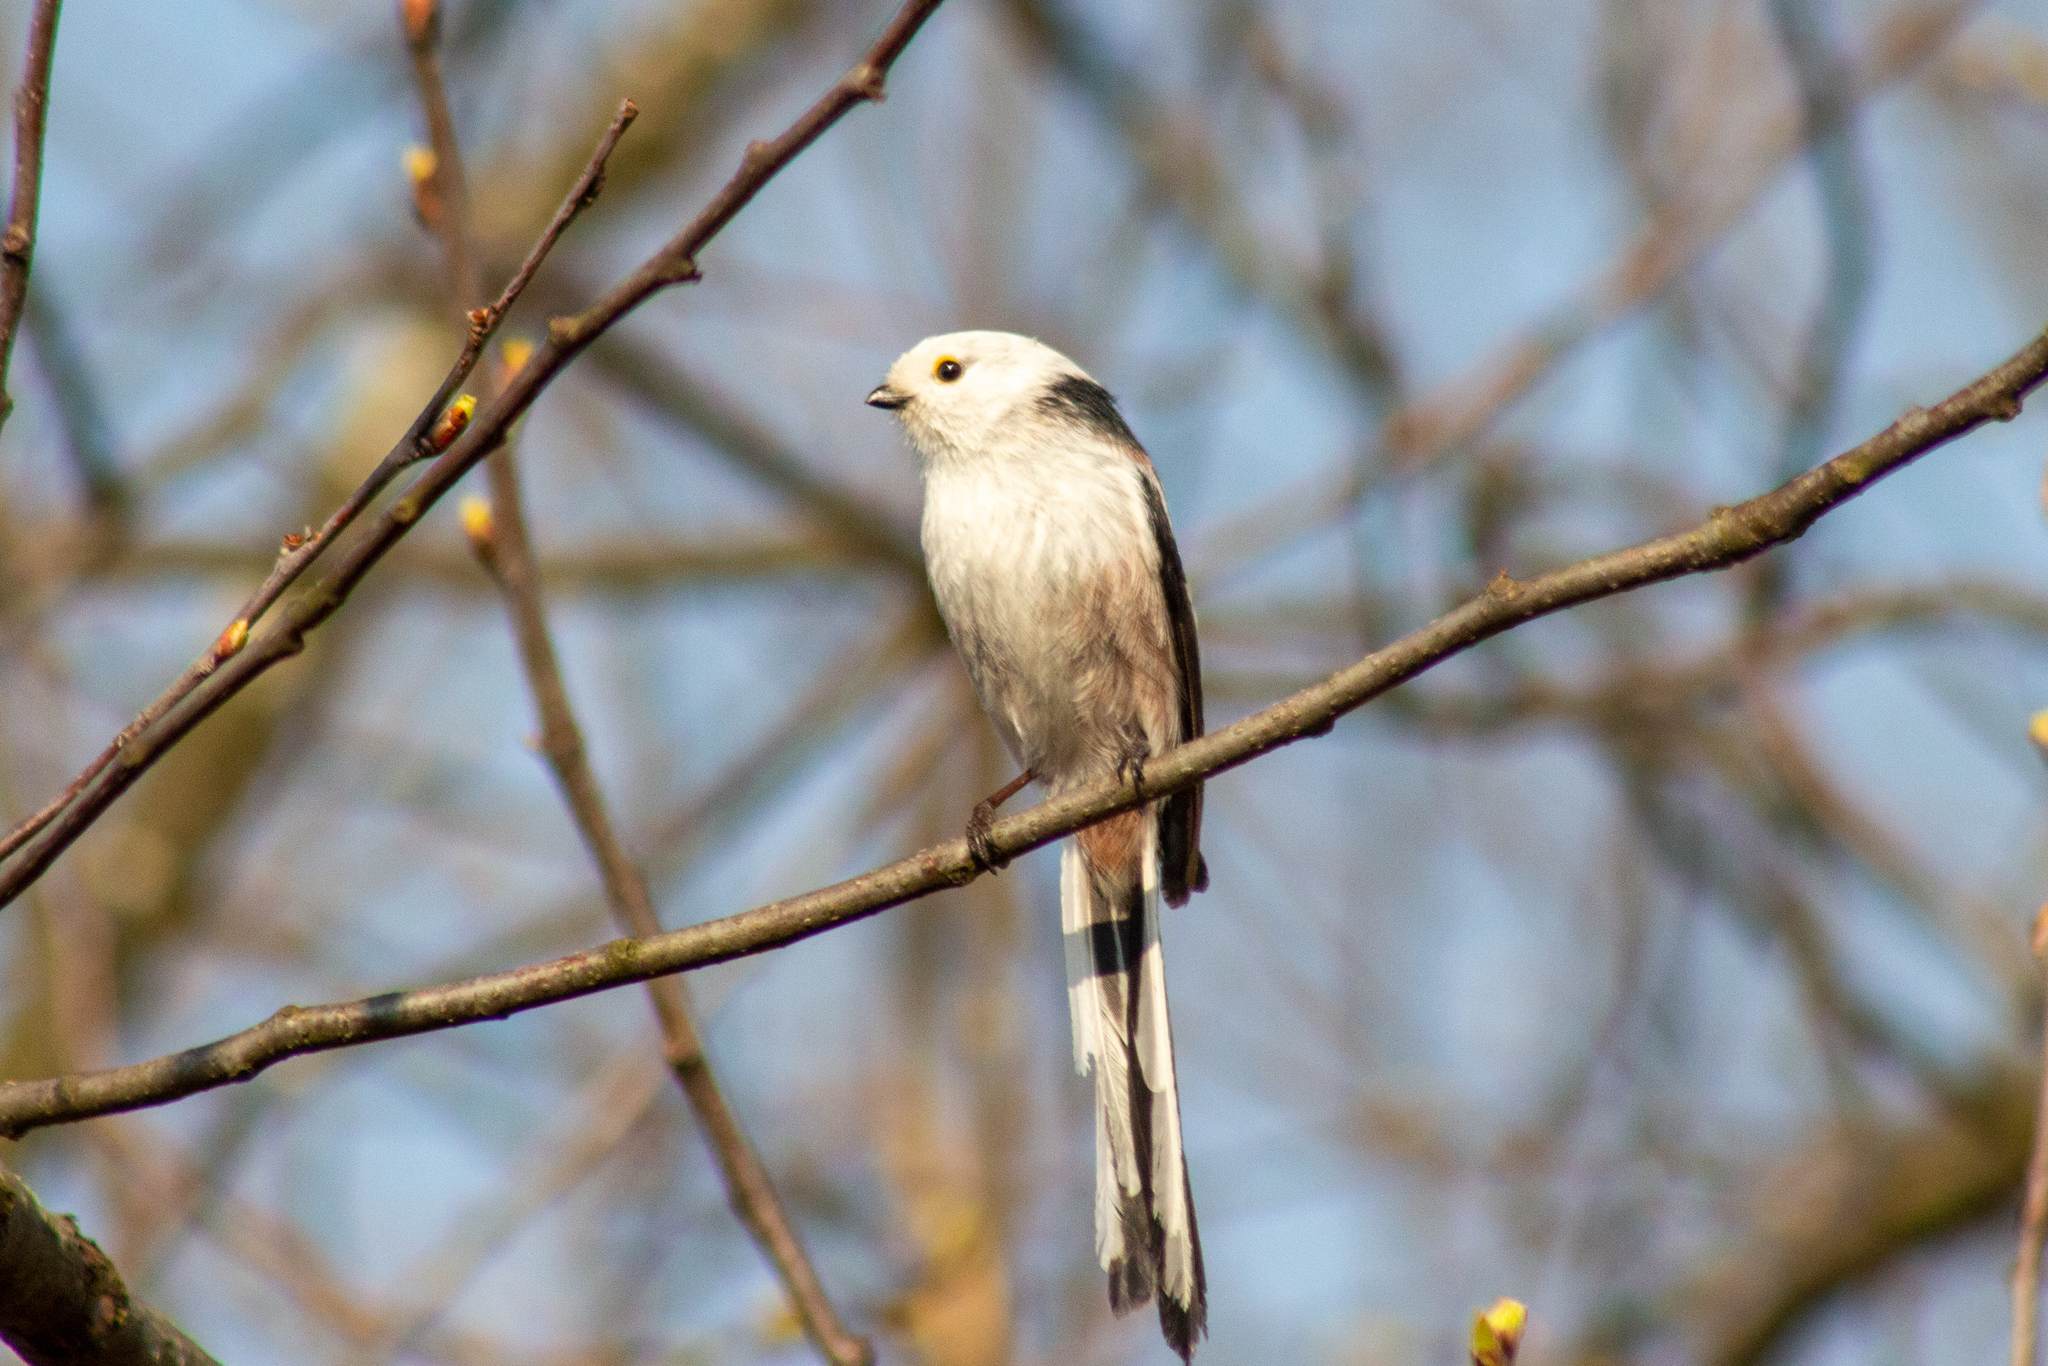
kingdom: Animalia
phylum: Chordata
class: Aves
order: Passeriformes
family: Aegithalidae
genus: Aegithalos
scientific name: Aegithalos caudatus
